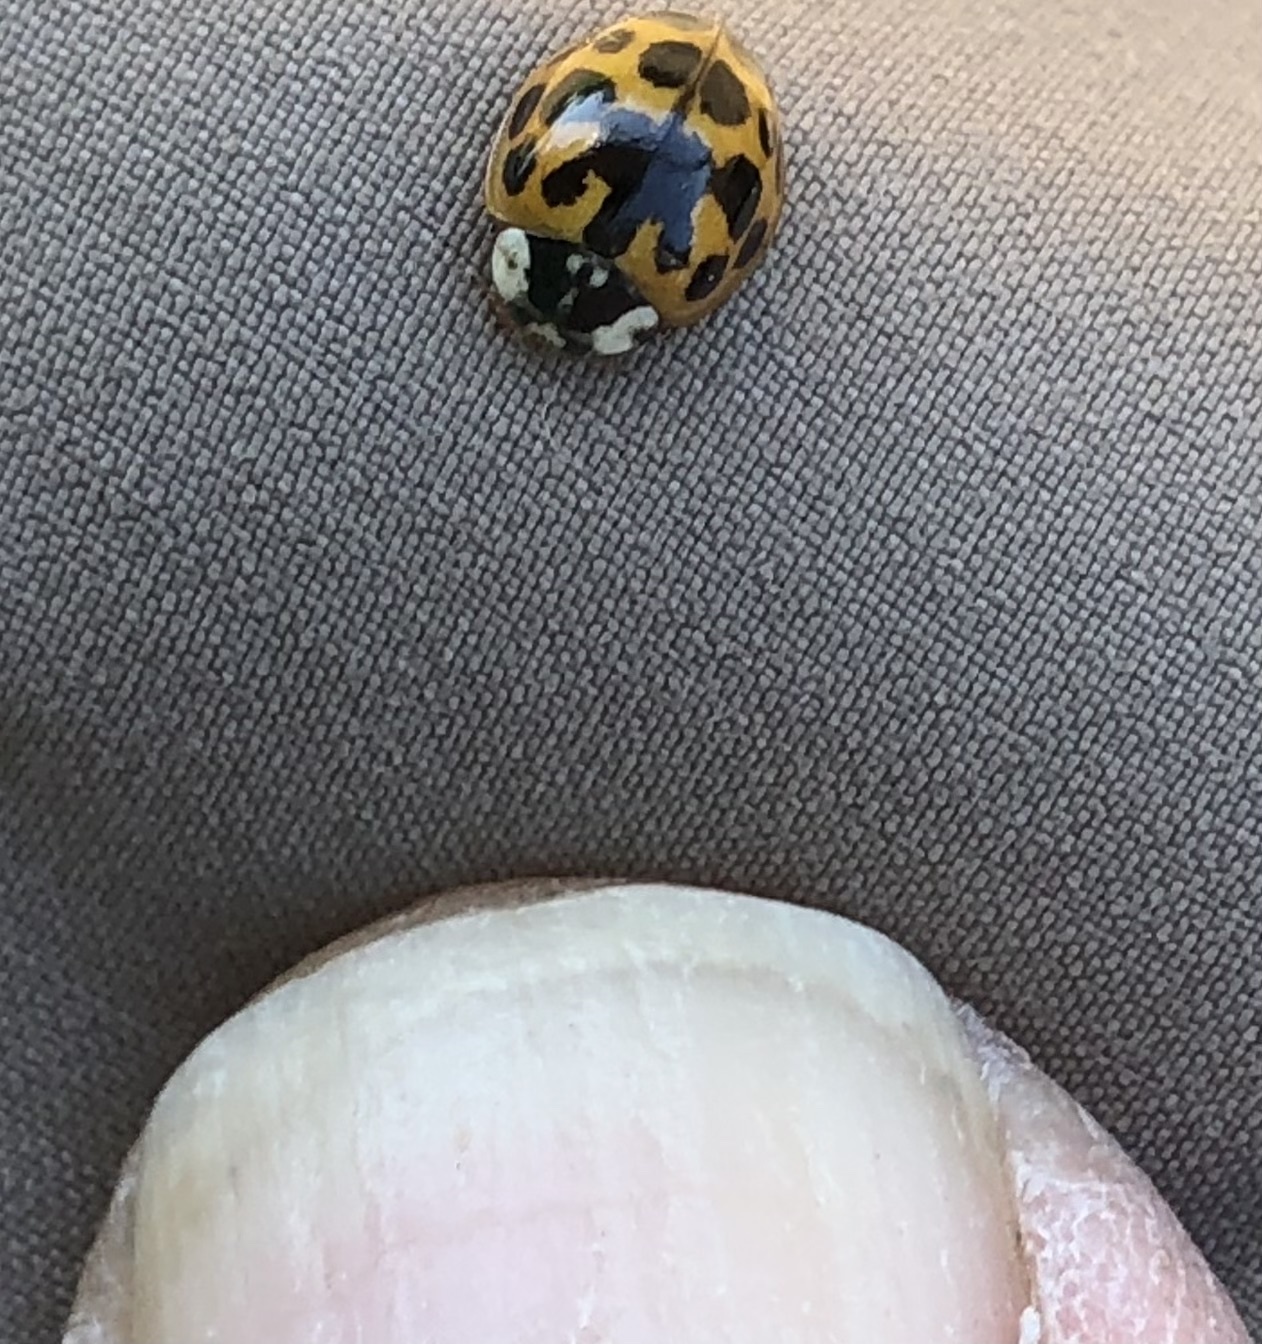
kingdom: Animalia
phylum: Arthropoda
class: Insecta
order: Coleoptera
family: Coccinellidae
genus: Harmonia
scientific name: Harmonia axyridis
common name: Harlequin ladybird
